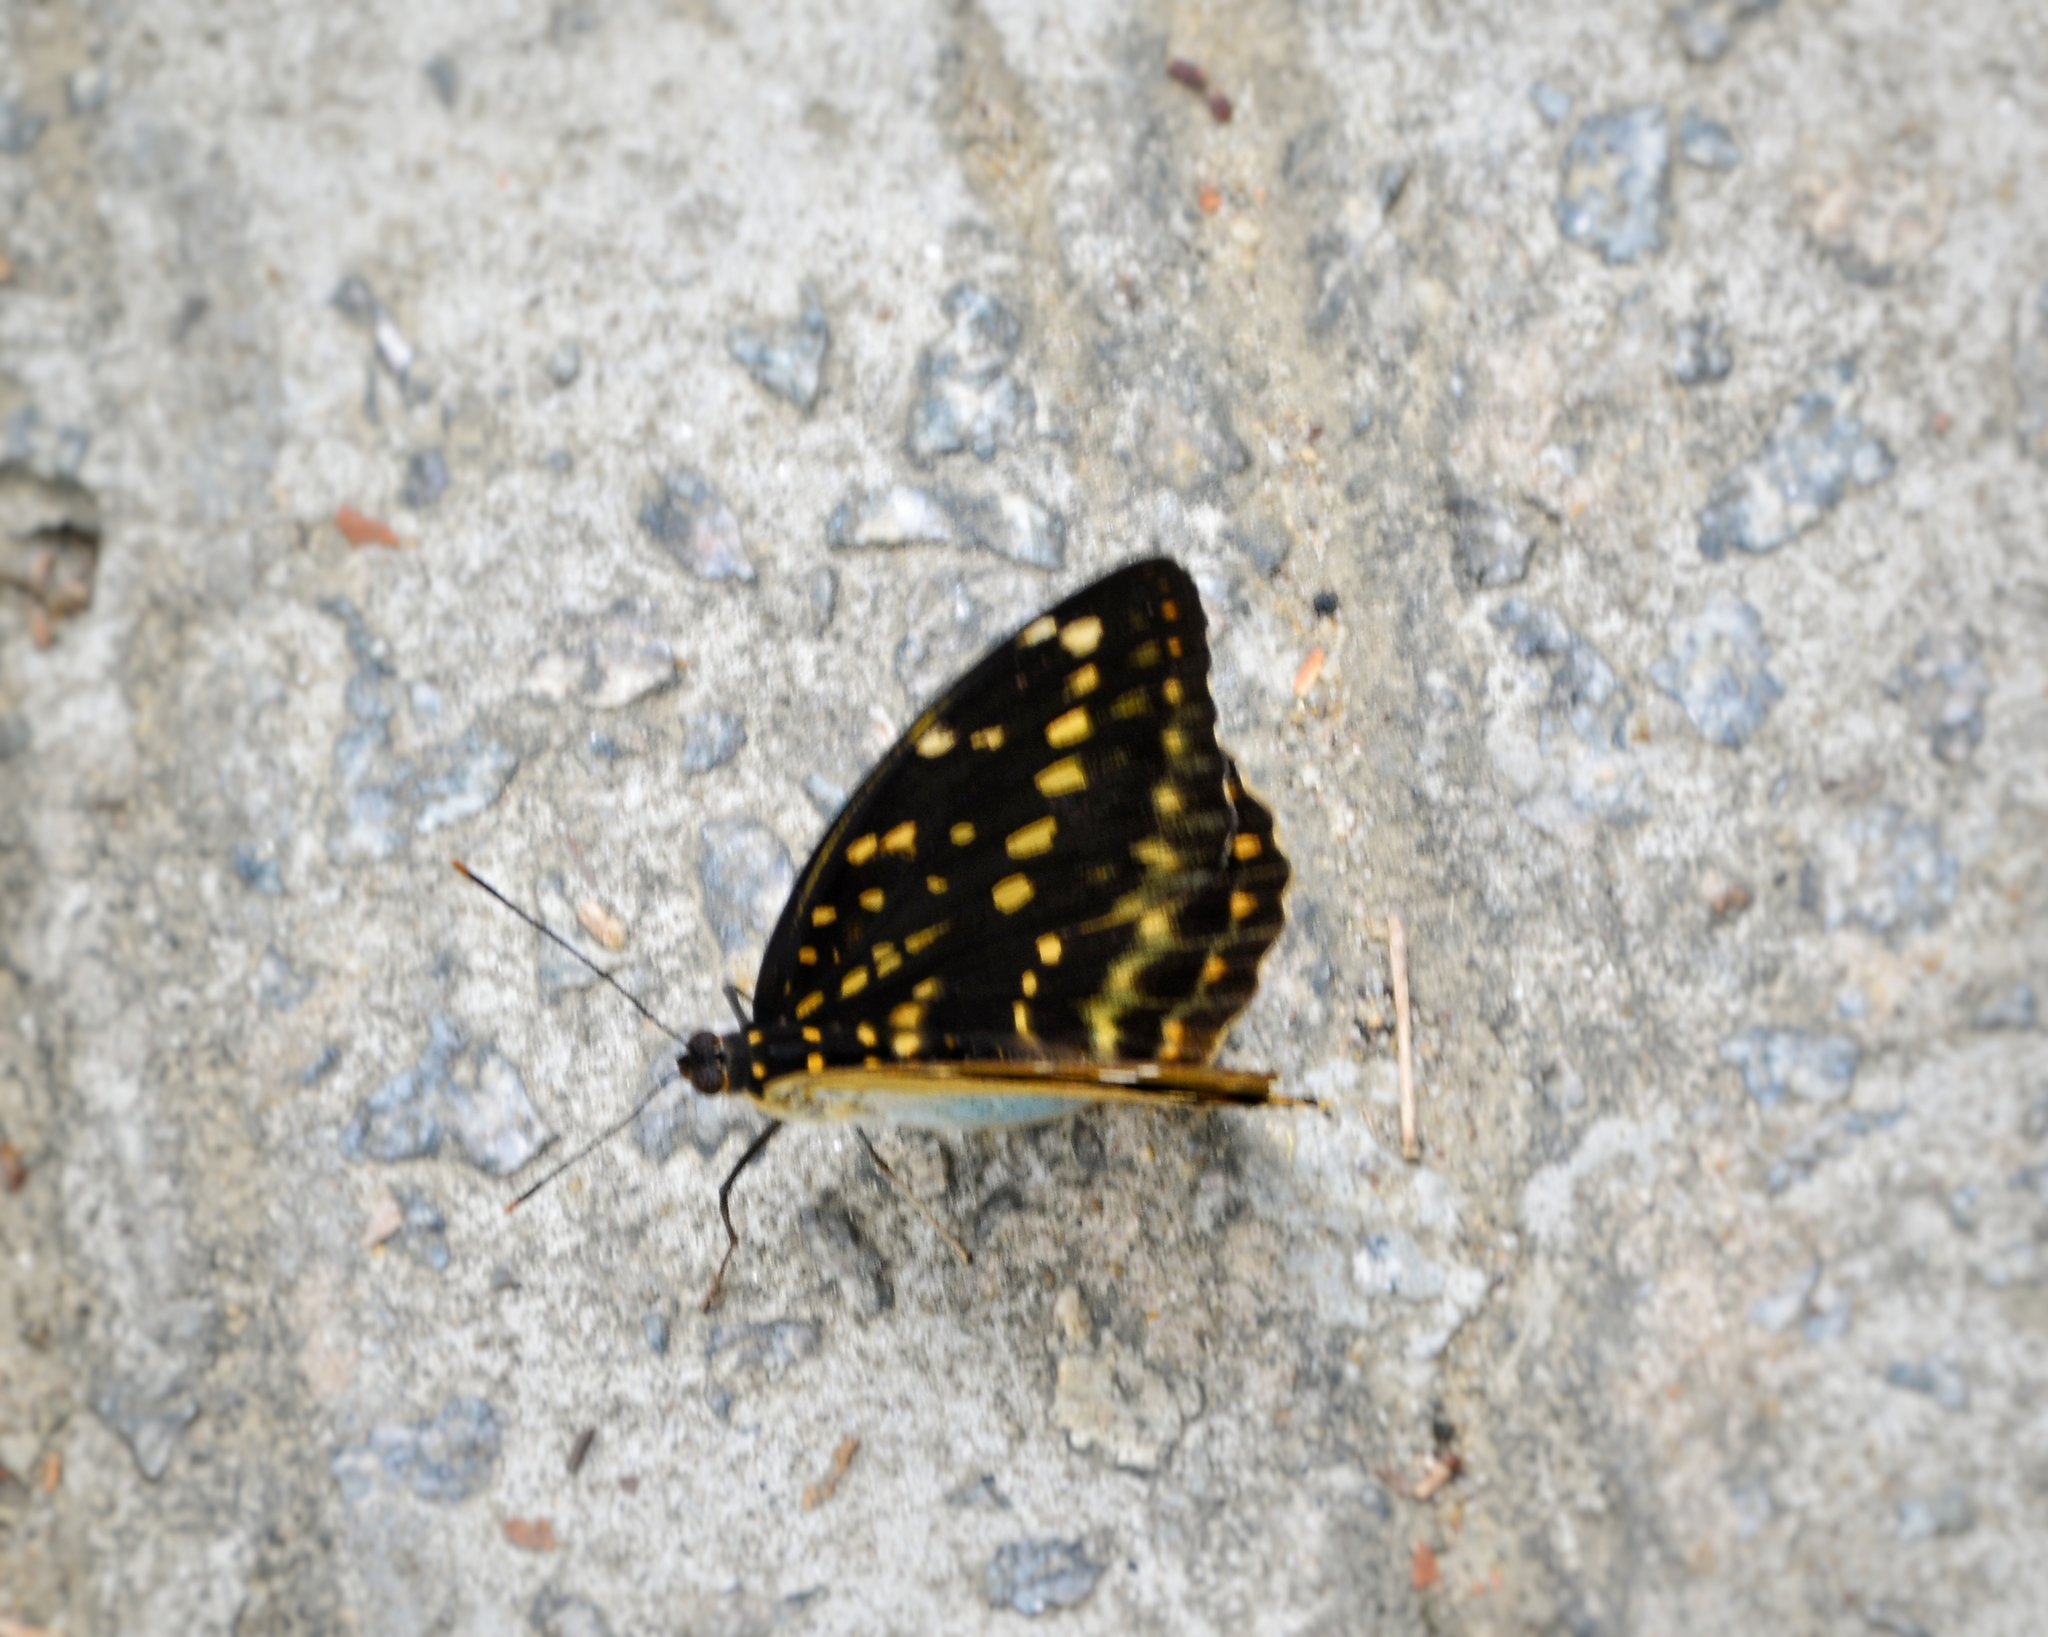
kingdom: Animalia
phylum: Arthropoda
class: Insecta
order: Lepidoptera
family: Nymphalidae
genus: Lexias
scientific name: Lexias pardalis
